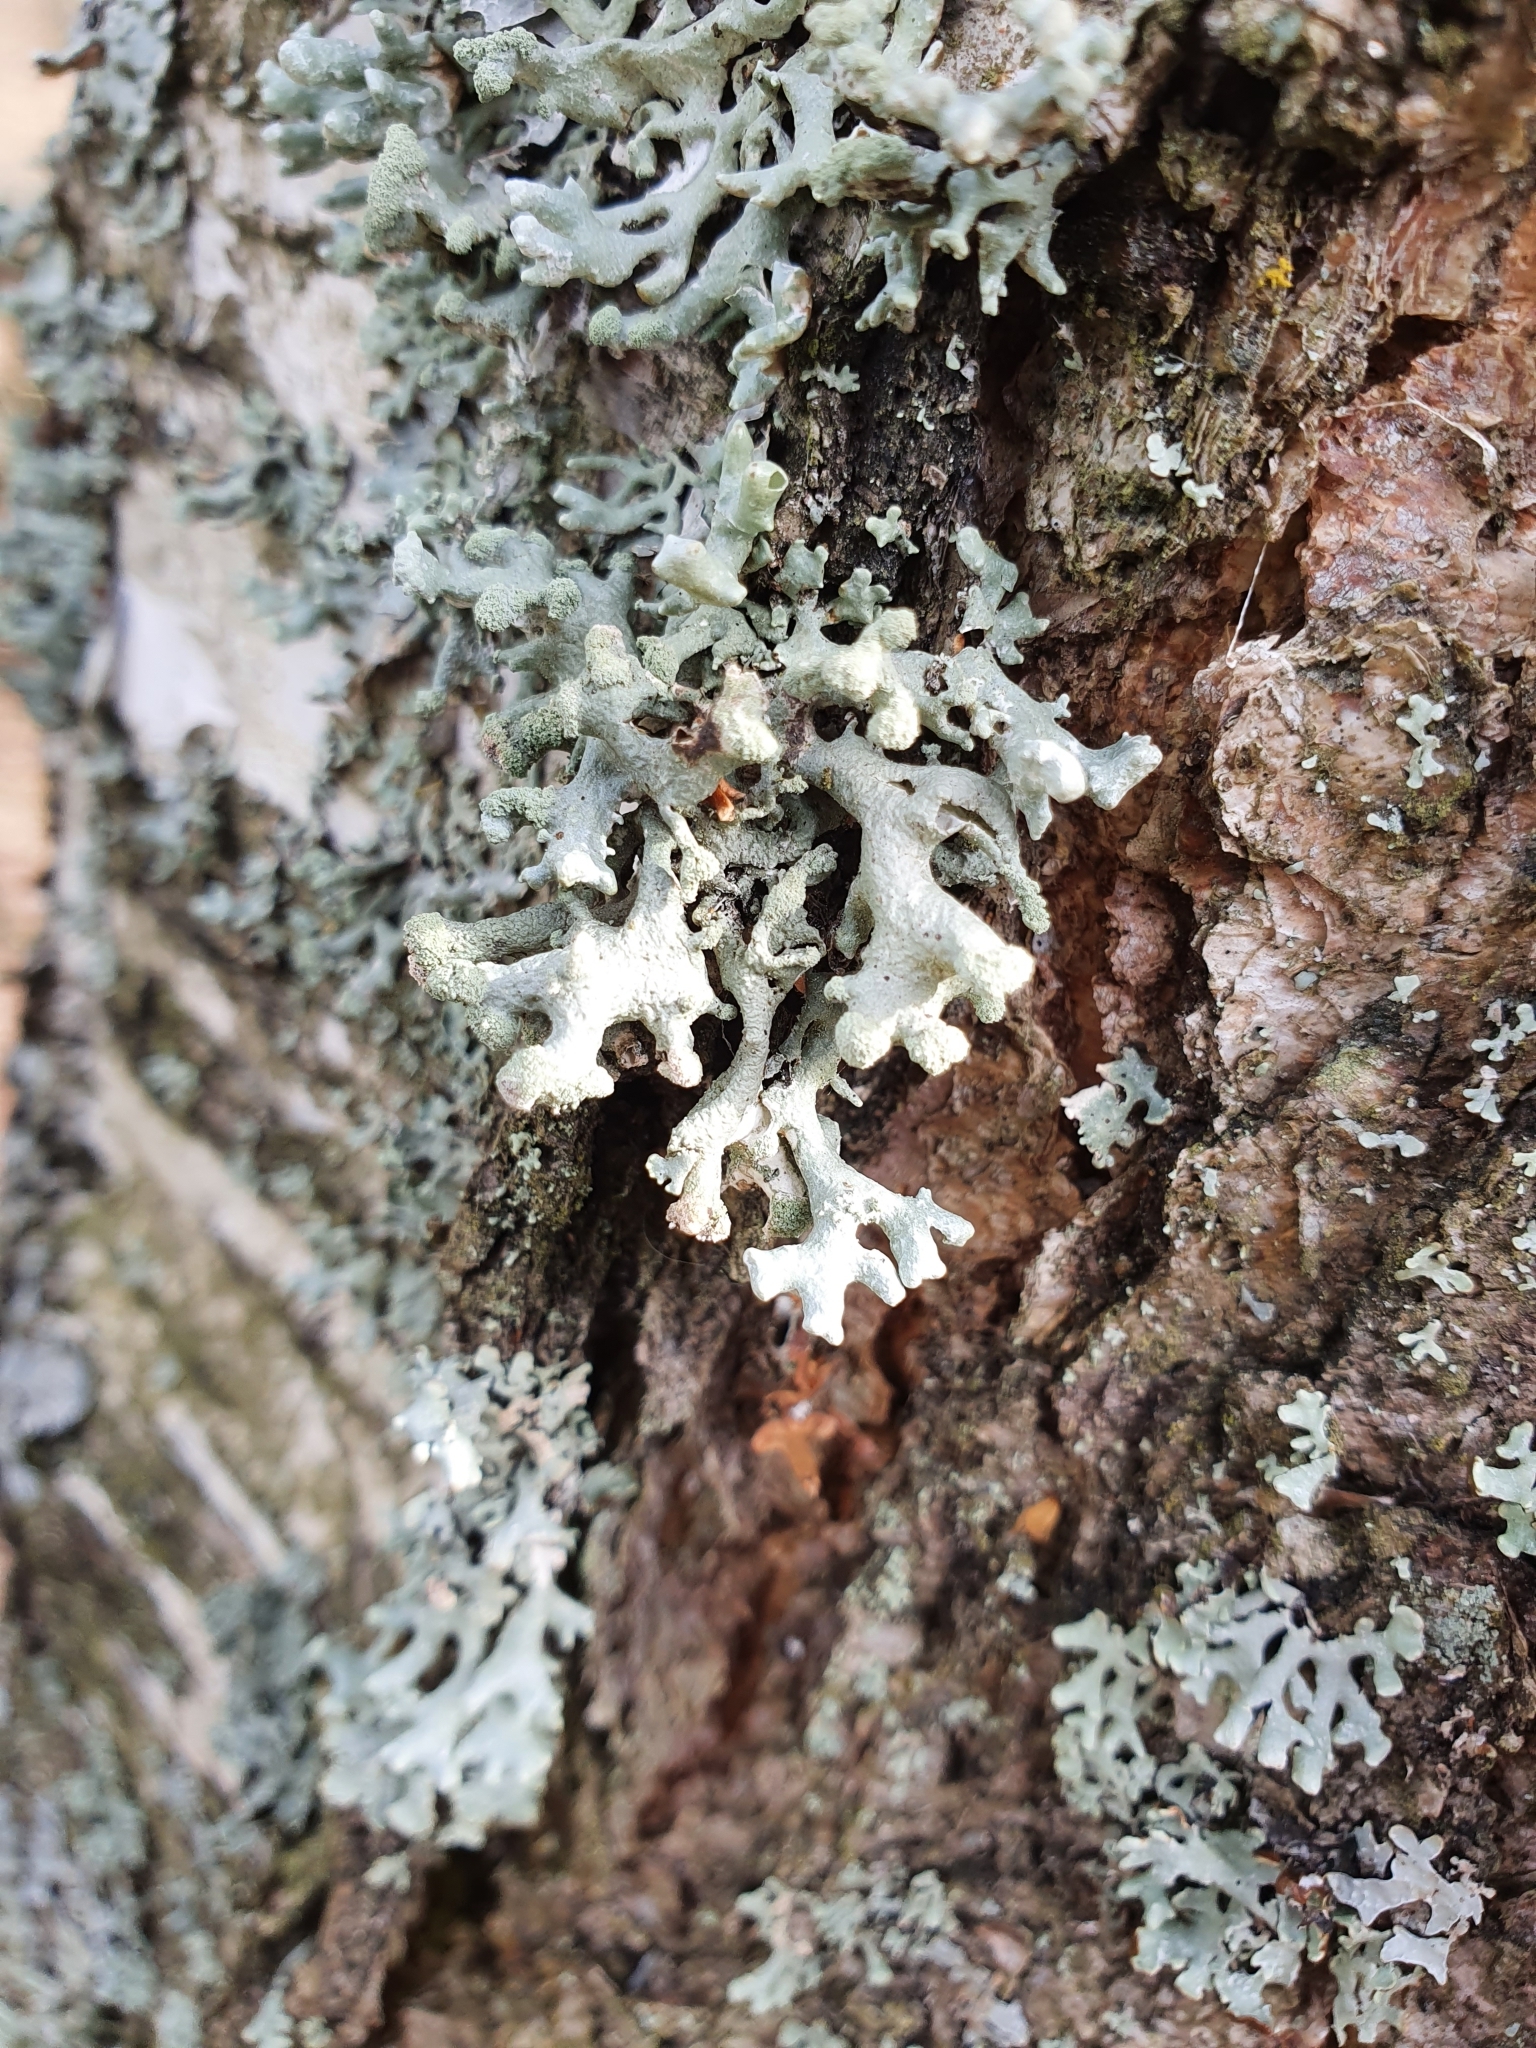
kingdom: Fungi
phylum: Ascomycota
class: Lecanoromycetes
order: Lecanorales
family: Parmeliaceae
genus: Hypogymnia
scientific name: Hypogymnia tubulosa
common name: Powder-headed tube lichen
